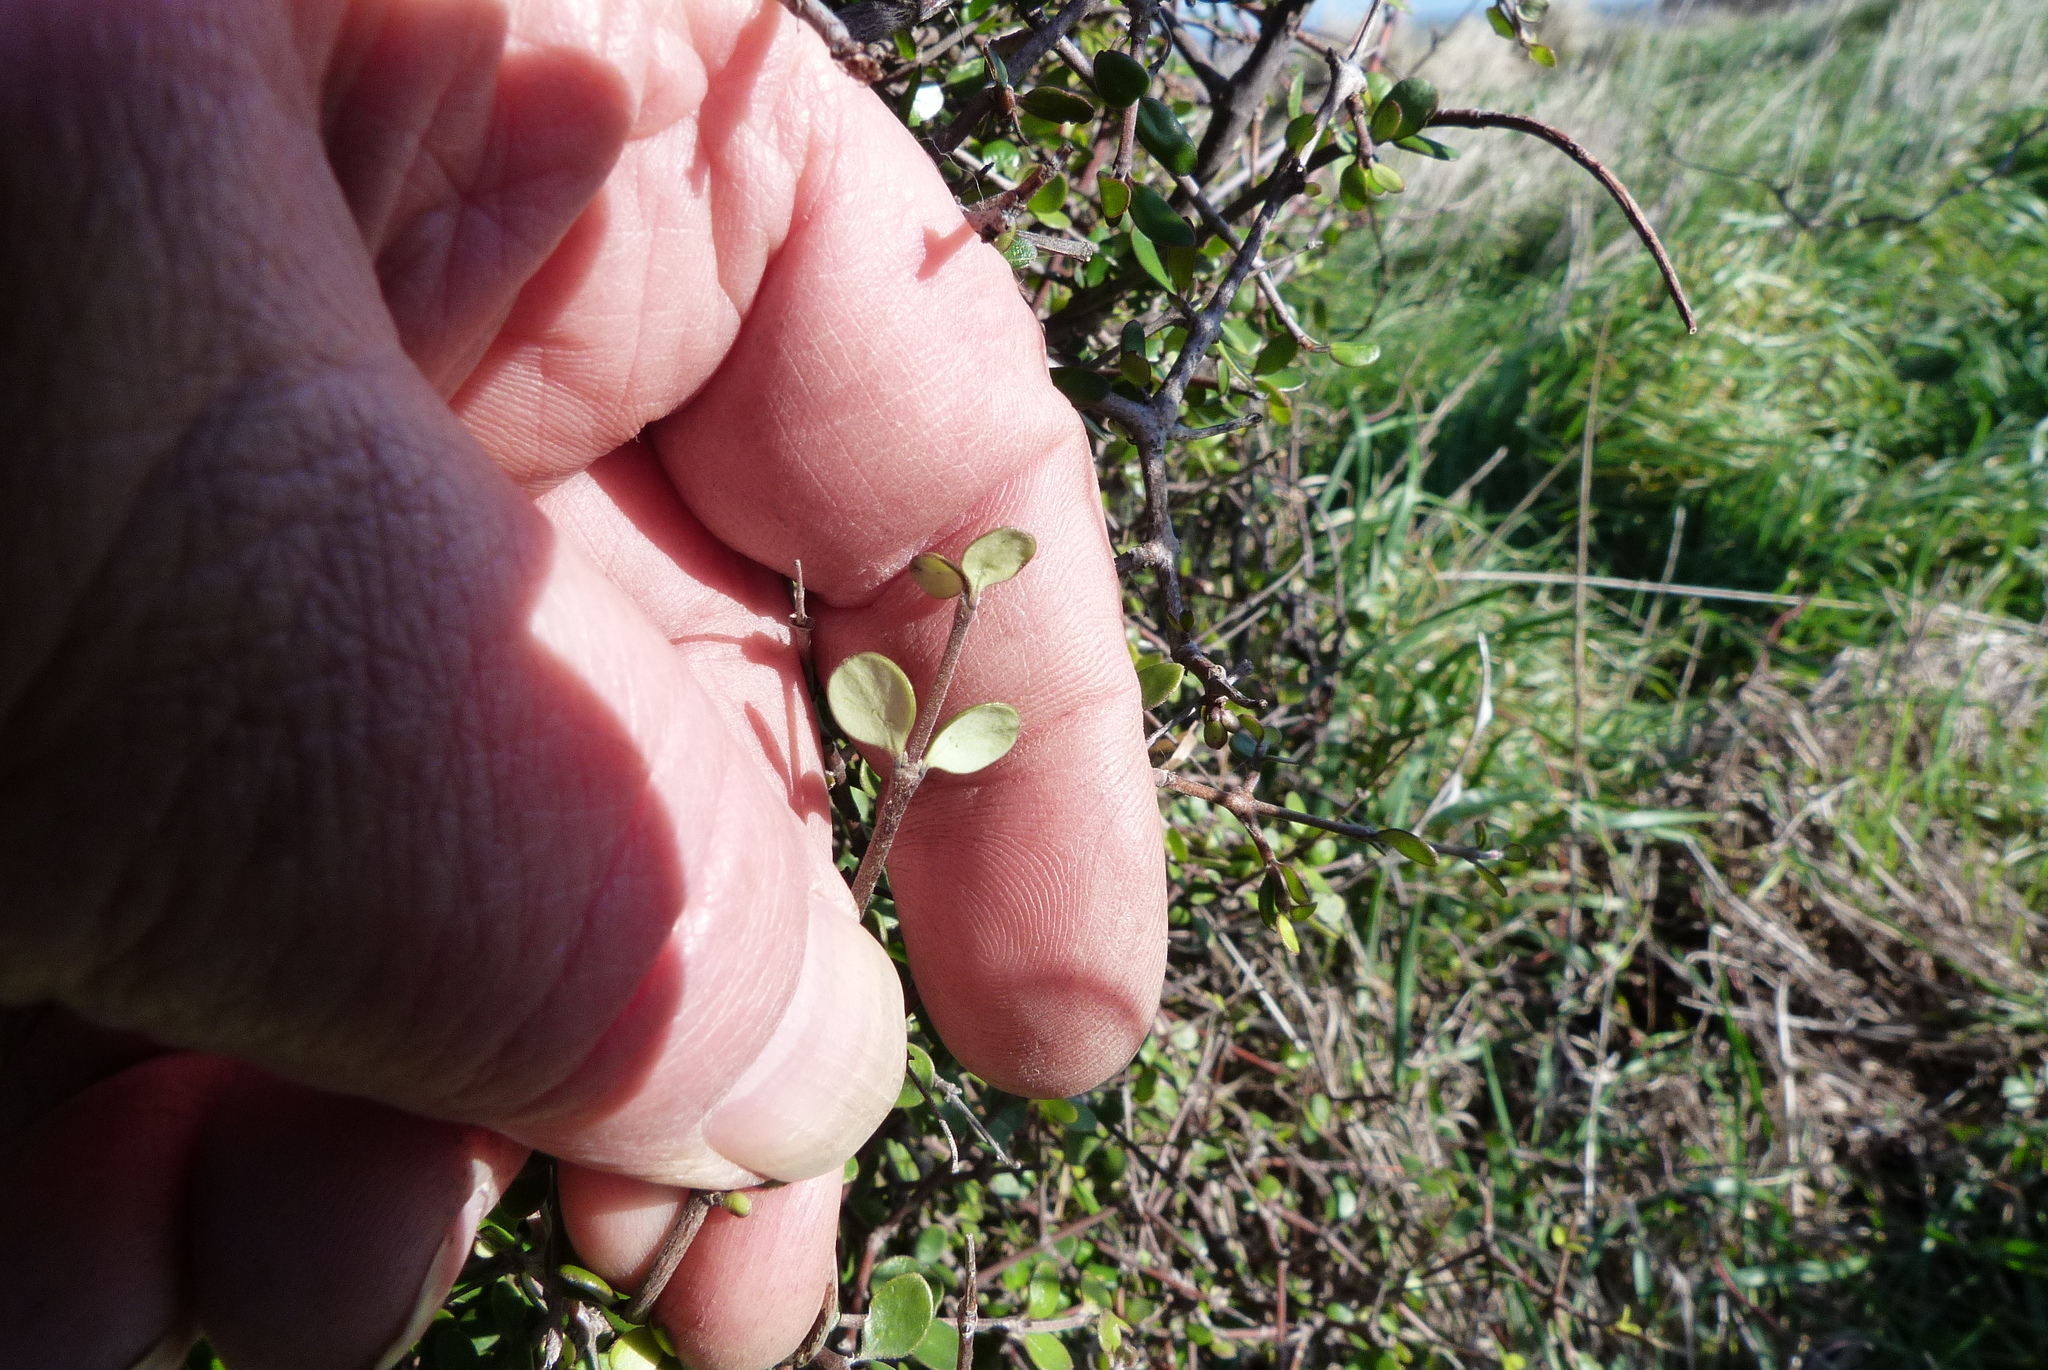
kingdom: Plantae
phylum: Tracheophyta
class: Magnoliopsida
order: Gentianales
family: Rubiaceae
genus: Coprosma
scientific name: Coprosma crassifolia
